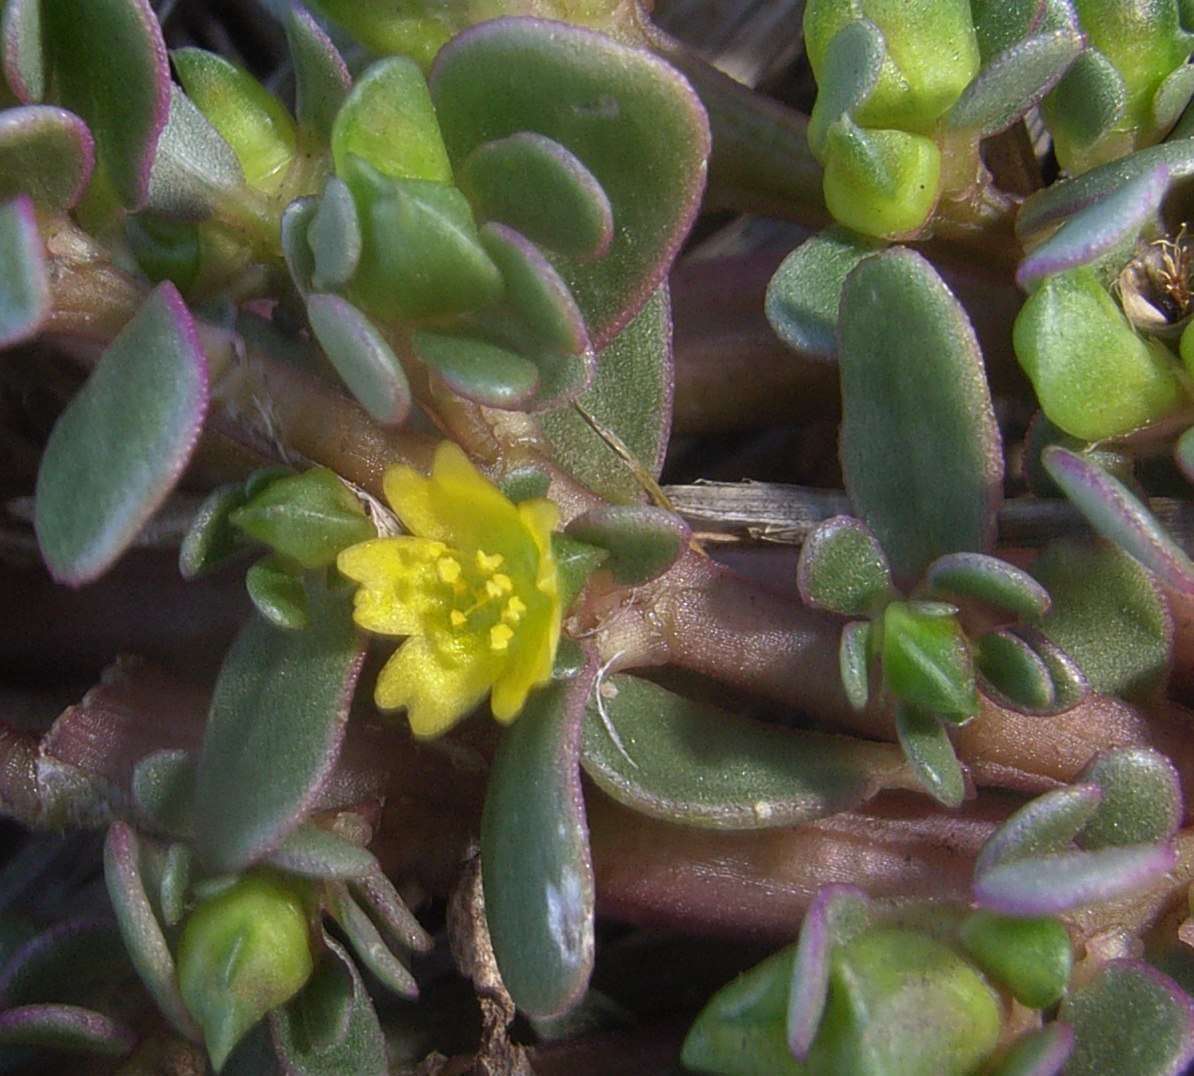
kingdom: Plantae
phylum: Tracheophyta
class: Magnoliopsida
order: Caryophyllales
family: Portulacaceae
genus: Portulaca
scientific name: Portulaca oleracea
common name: Common purslane
